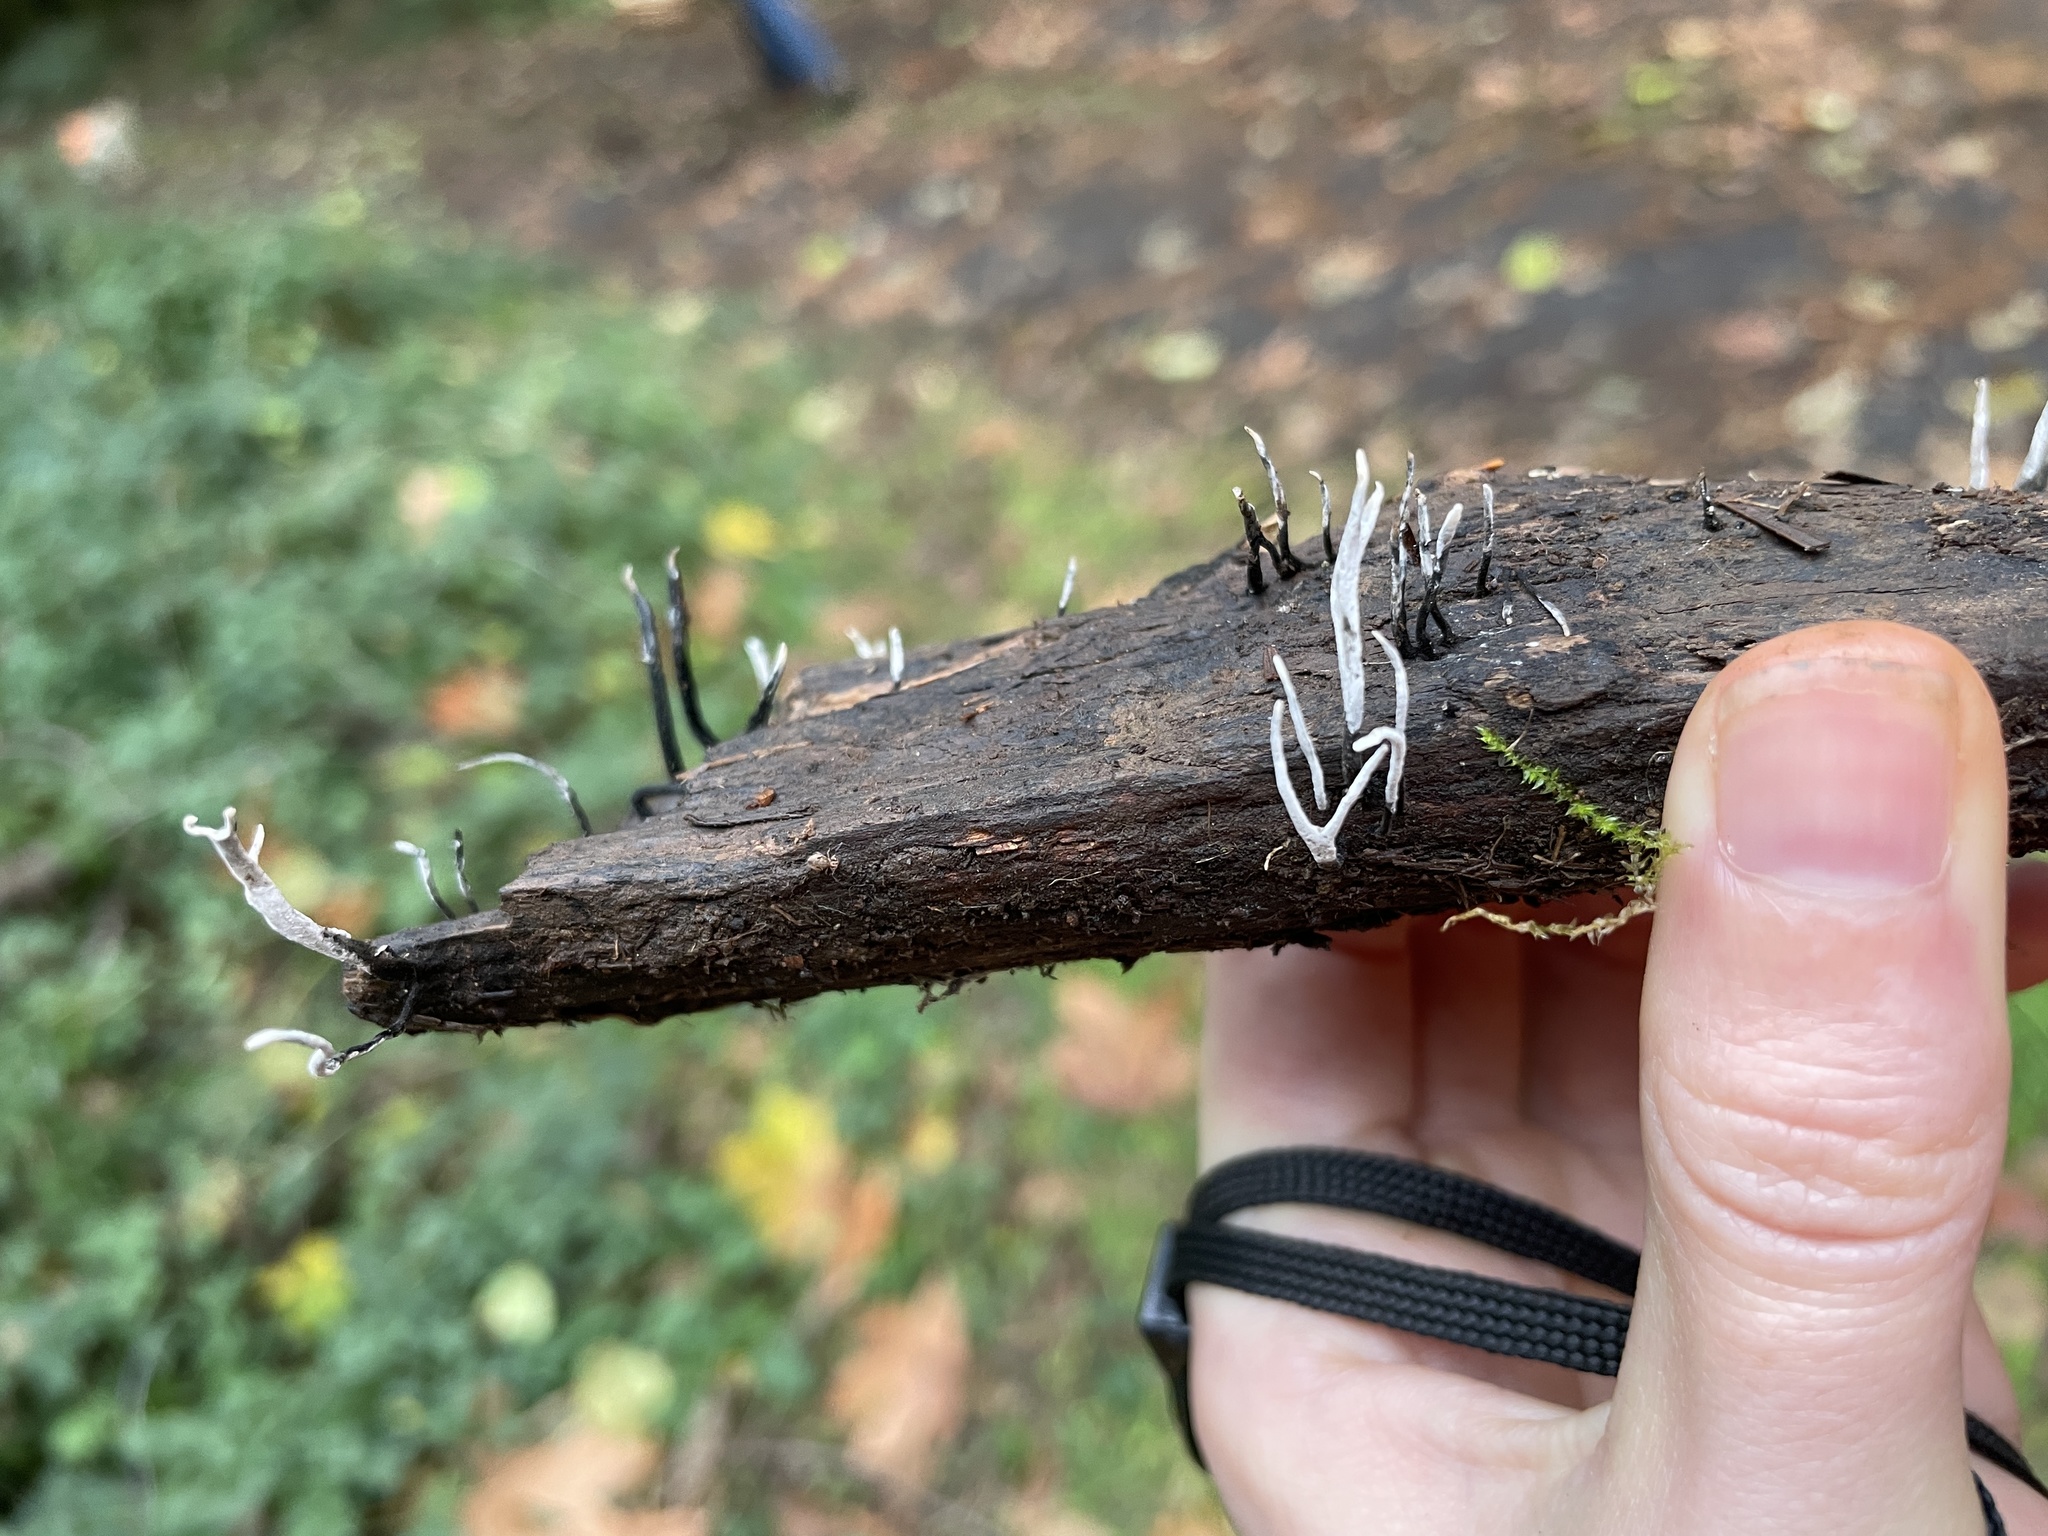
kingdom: Fungi
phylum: Ascomycota
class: Sordariomycetes
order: Xylariales
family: Xylariaceae
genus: Xylaria
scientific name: Xylaria hypoxylon
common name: Candle-snuff fungus
